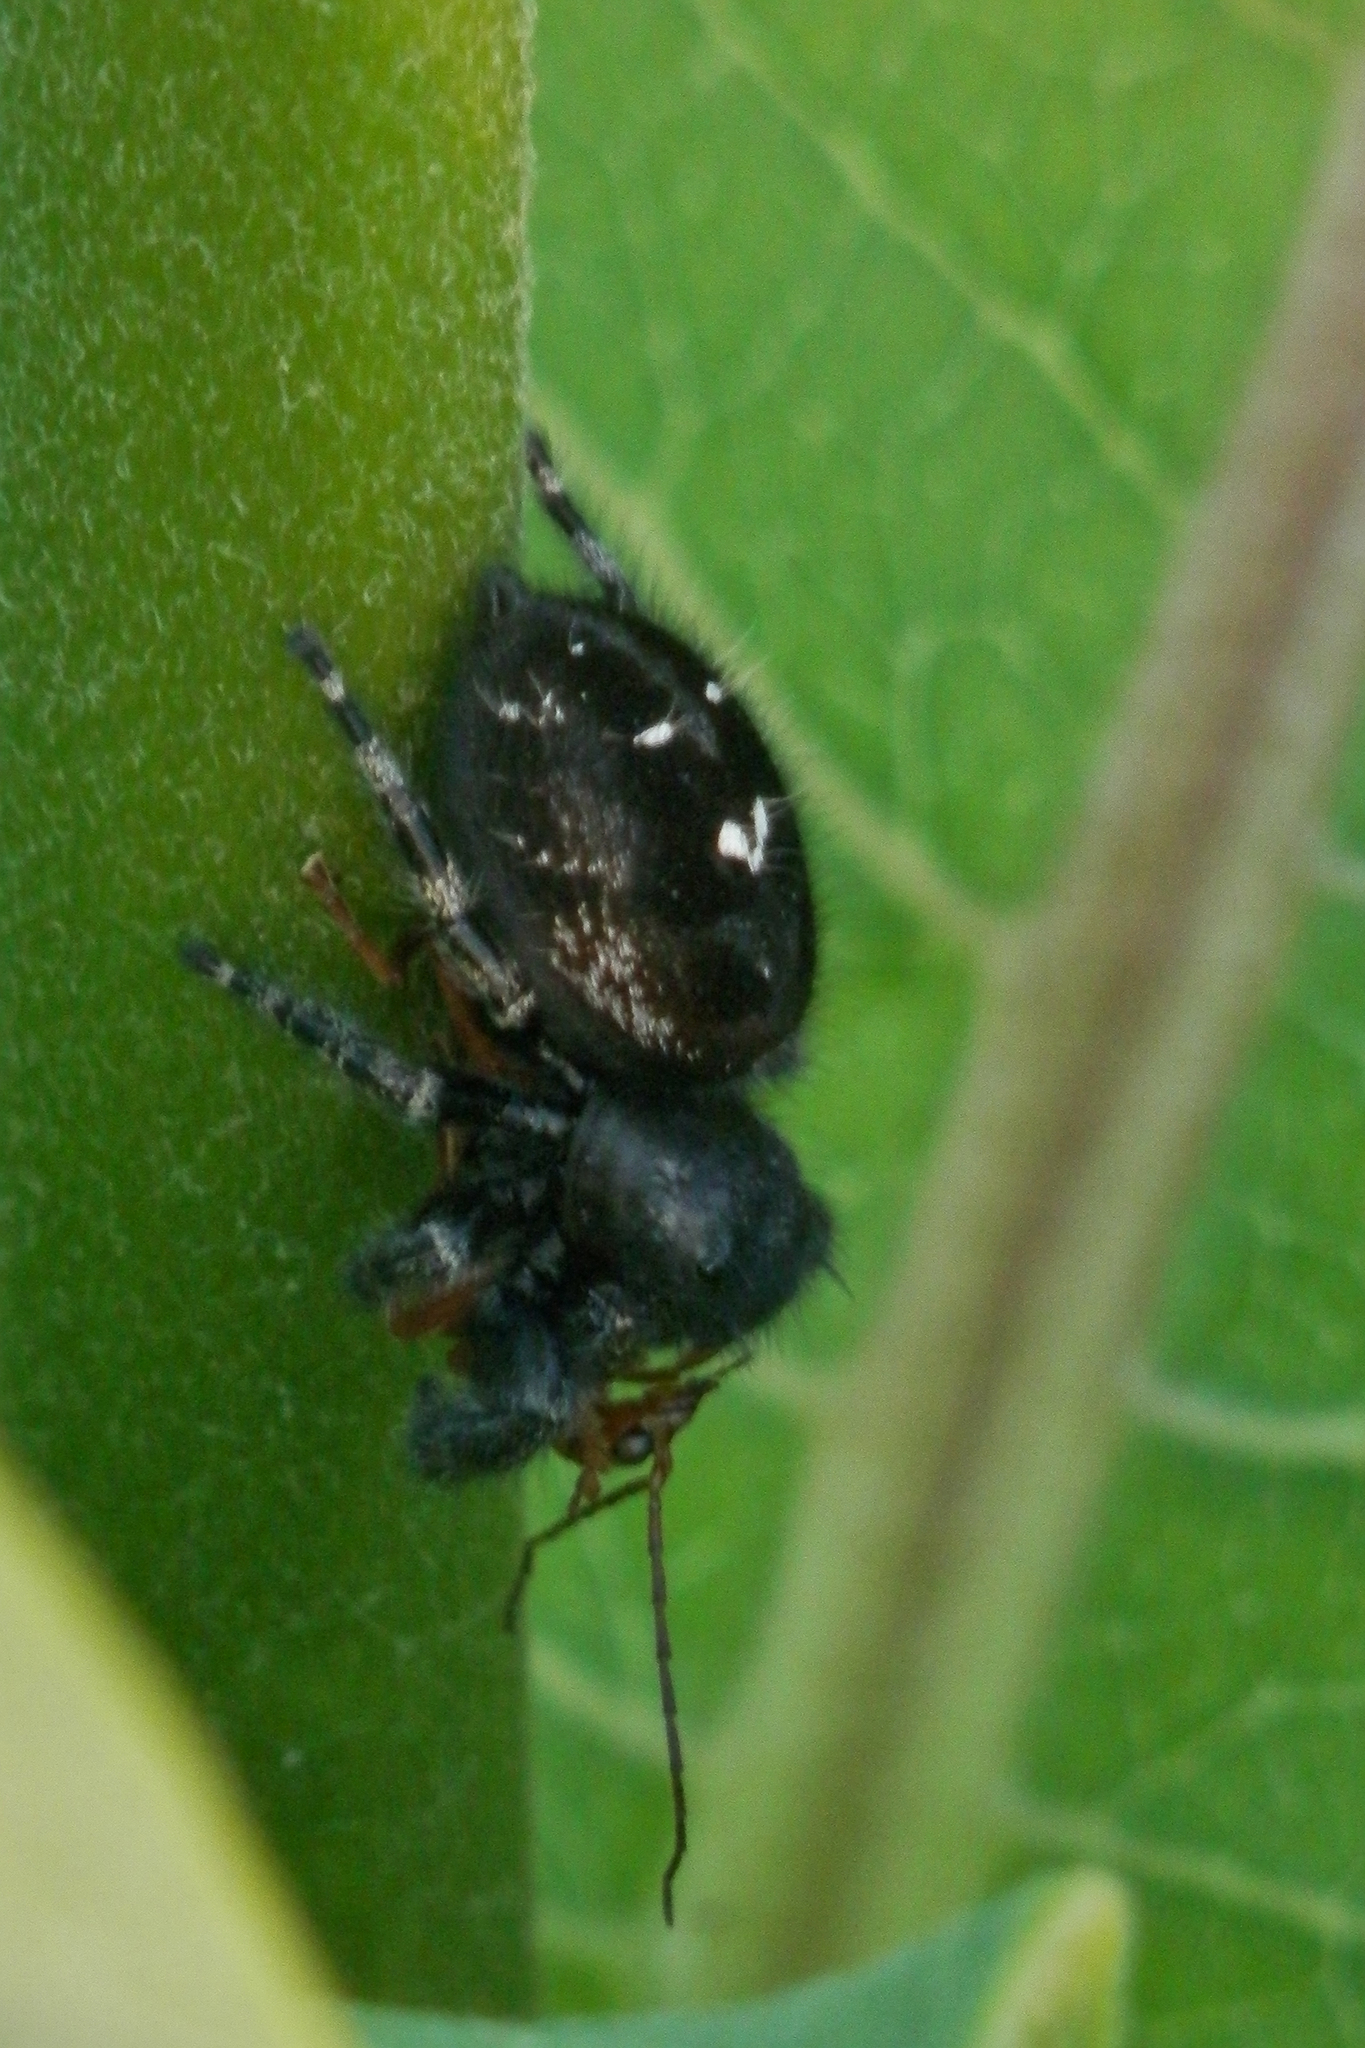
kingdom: Animalia
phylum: Arthropoda
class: Arachnida
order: Araneae
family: Salticidae
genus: Phidippus
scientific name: Phidippus audax
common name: Bold jumper
